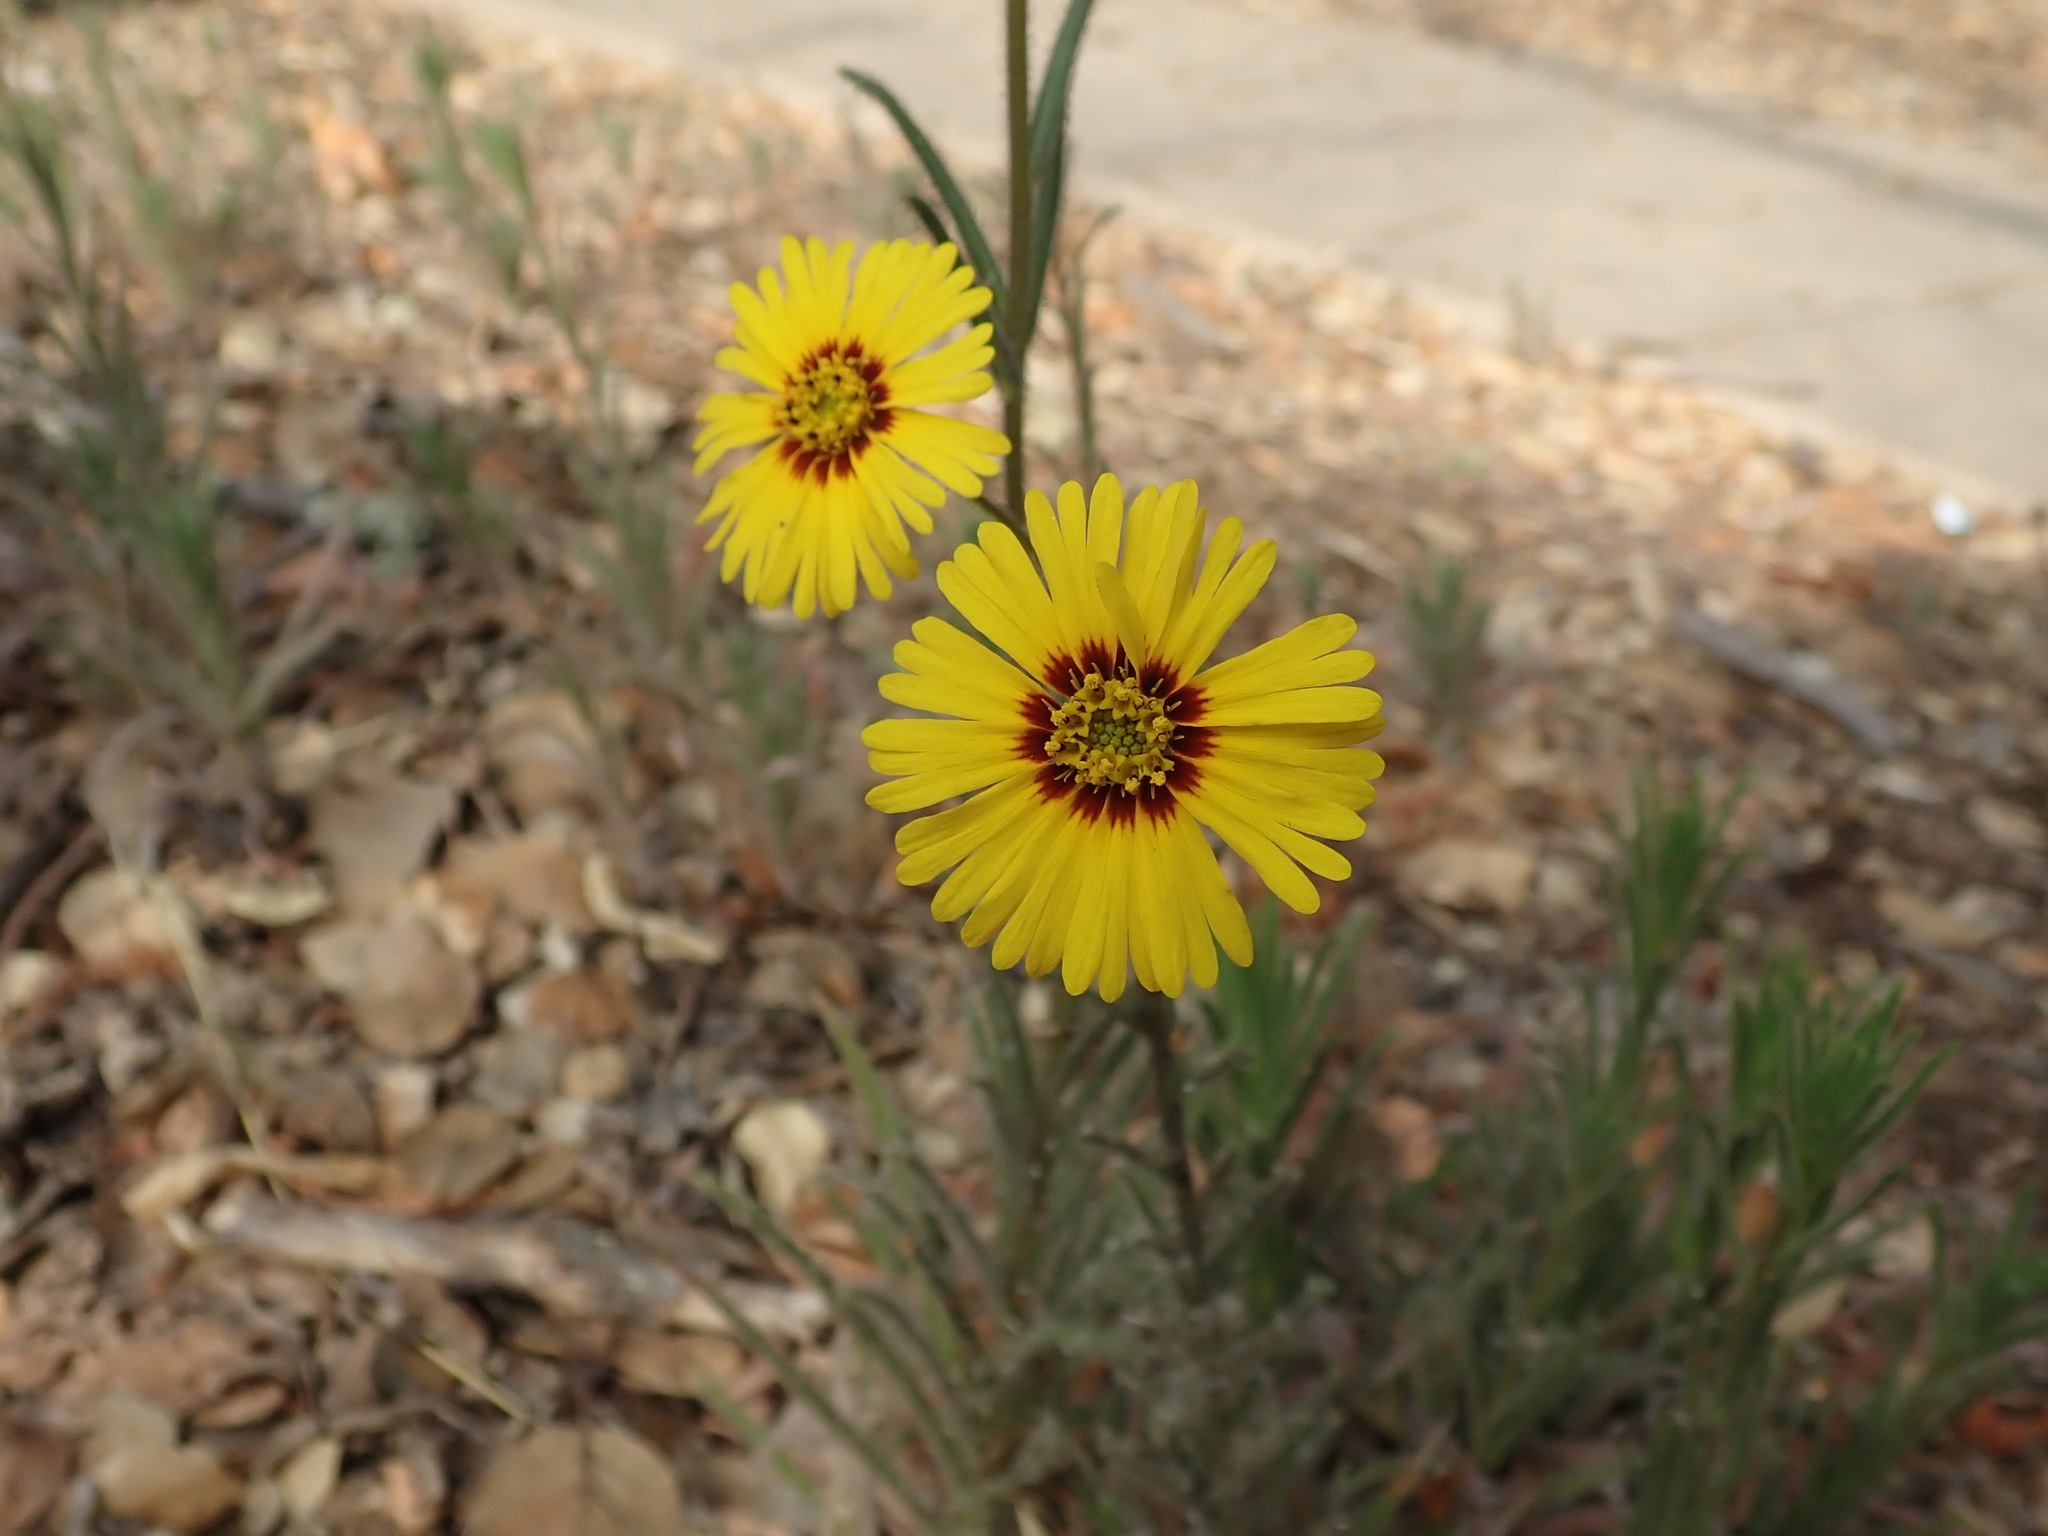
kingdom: Plantae
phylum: Tracheophyta
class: Magnoliopsida
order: Asterales
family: Asteraceae
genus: Madia
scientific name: Madia elegans
